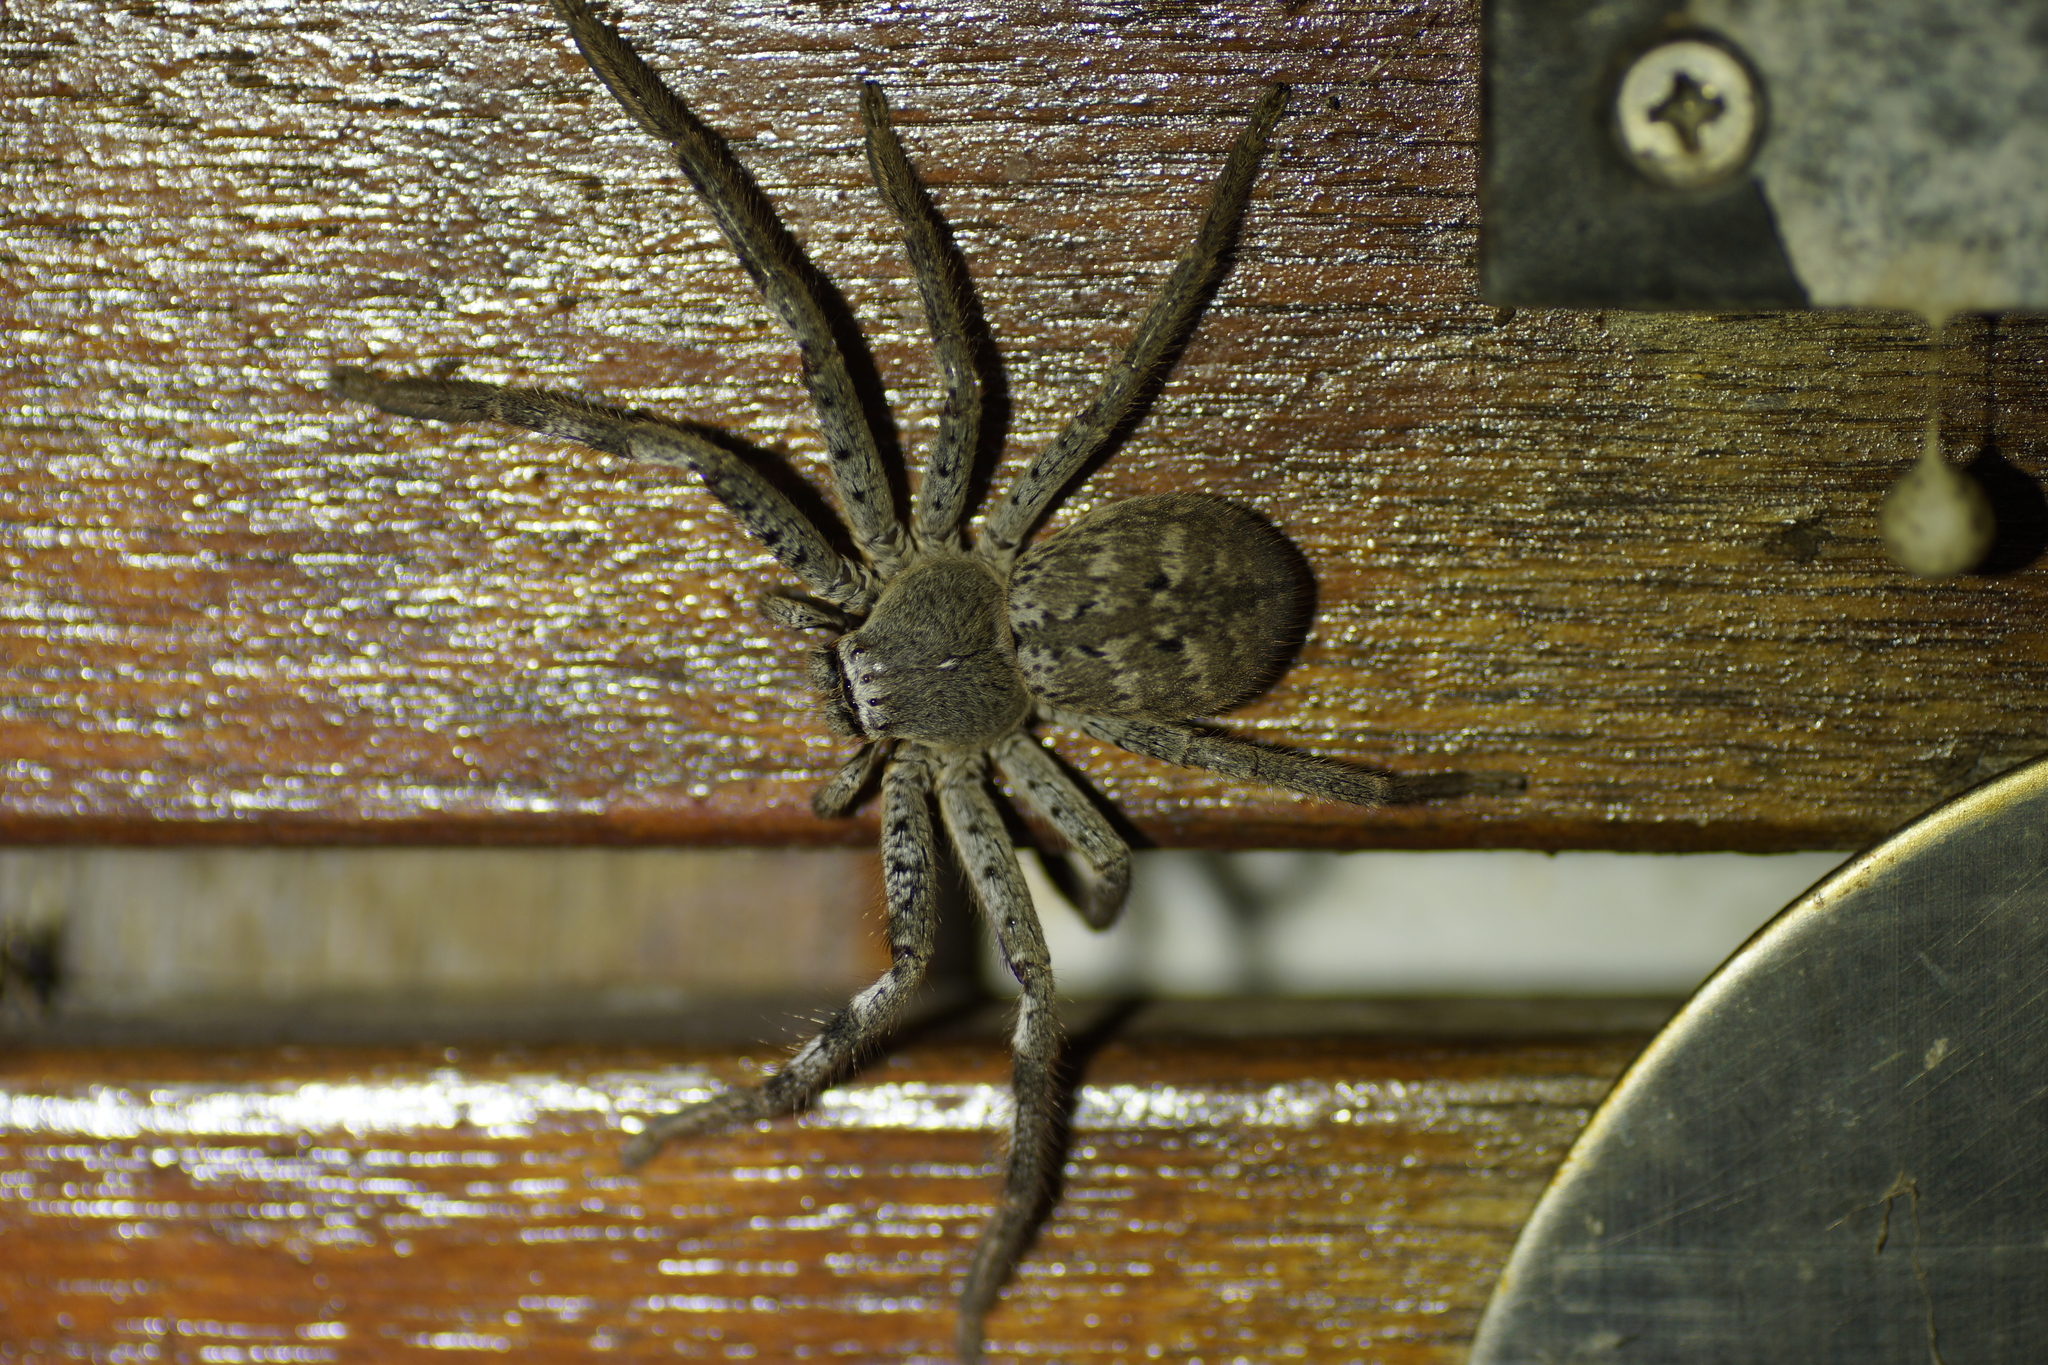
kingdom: Animalia
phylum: Arthropoda
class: Arachnida
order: Araneae
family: Sparassidae
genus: Isopedella
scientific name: Isopedella victorialis
